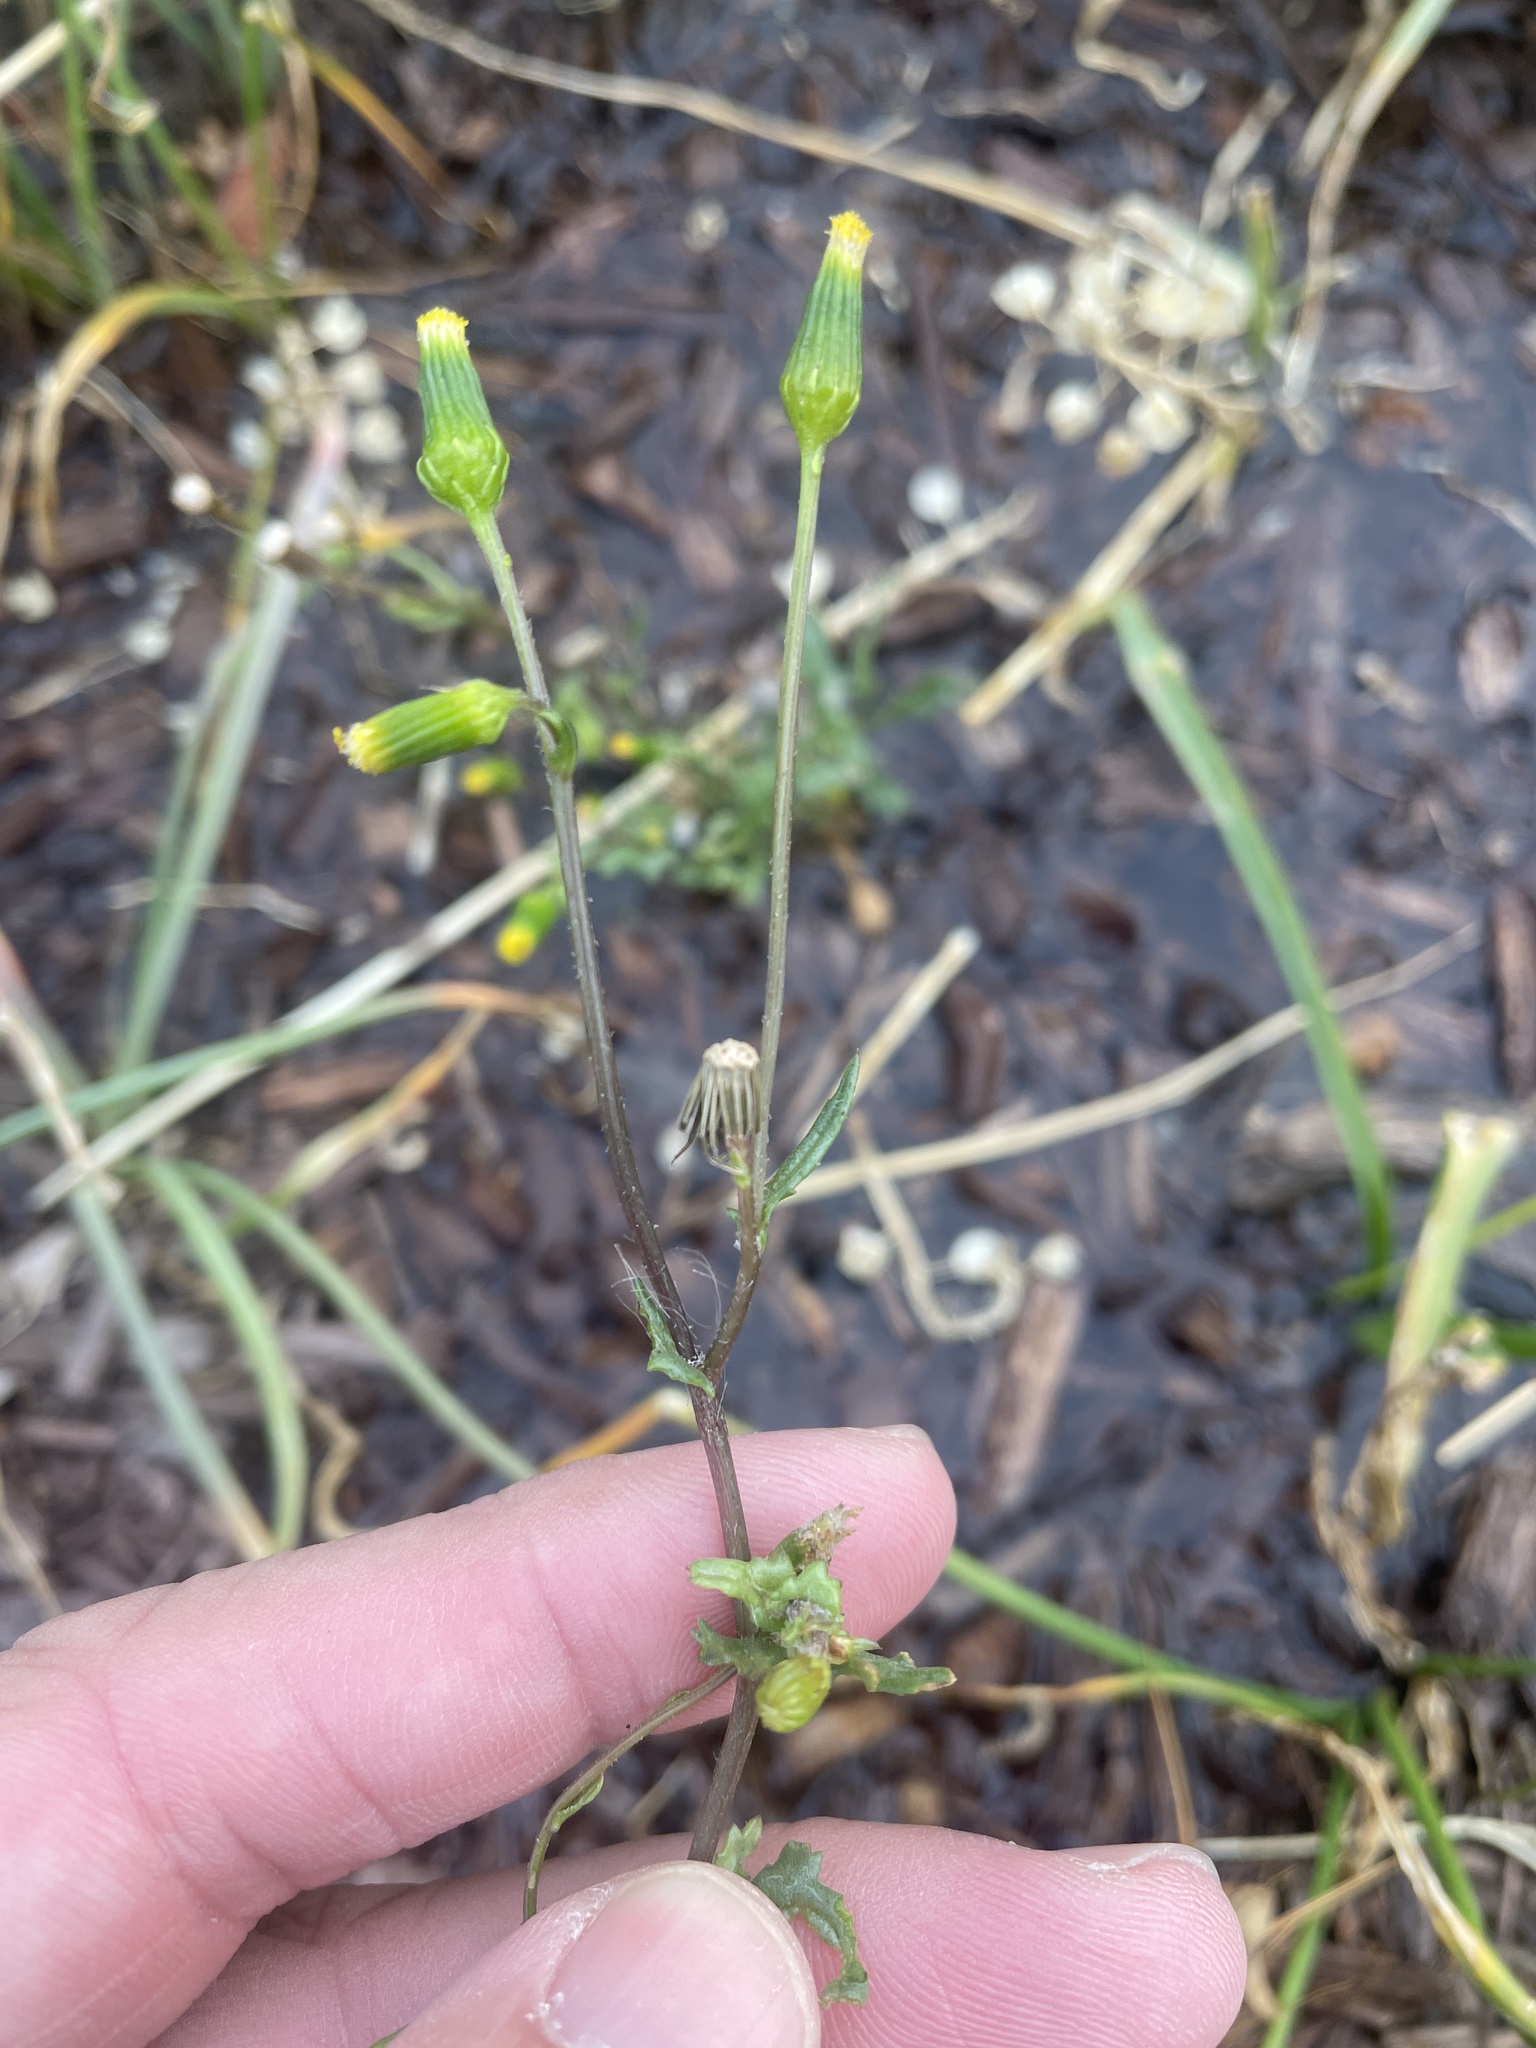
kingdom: Plantae
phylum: Tracheophyta
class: Magnoliopsida
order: Asterales
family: Asteraceae
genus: Senecio
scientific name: Senecio vulgaris
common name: Old-man-in-the-spring
